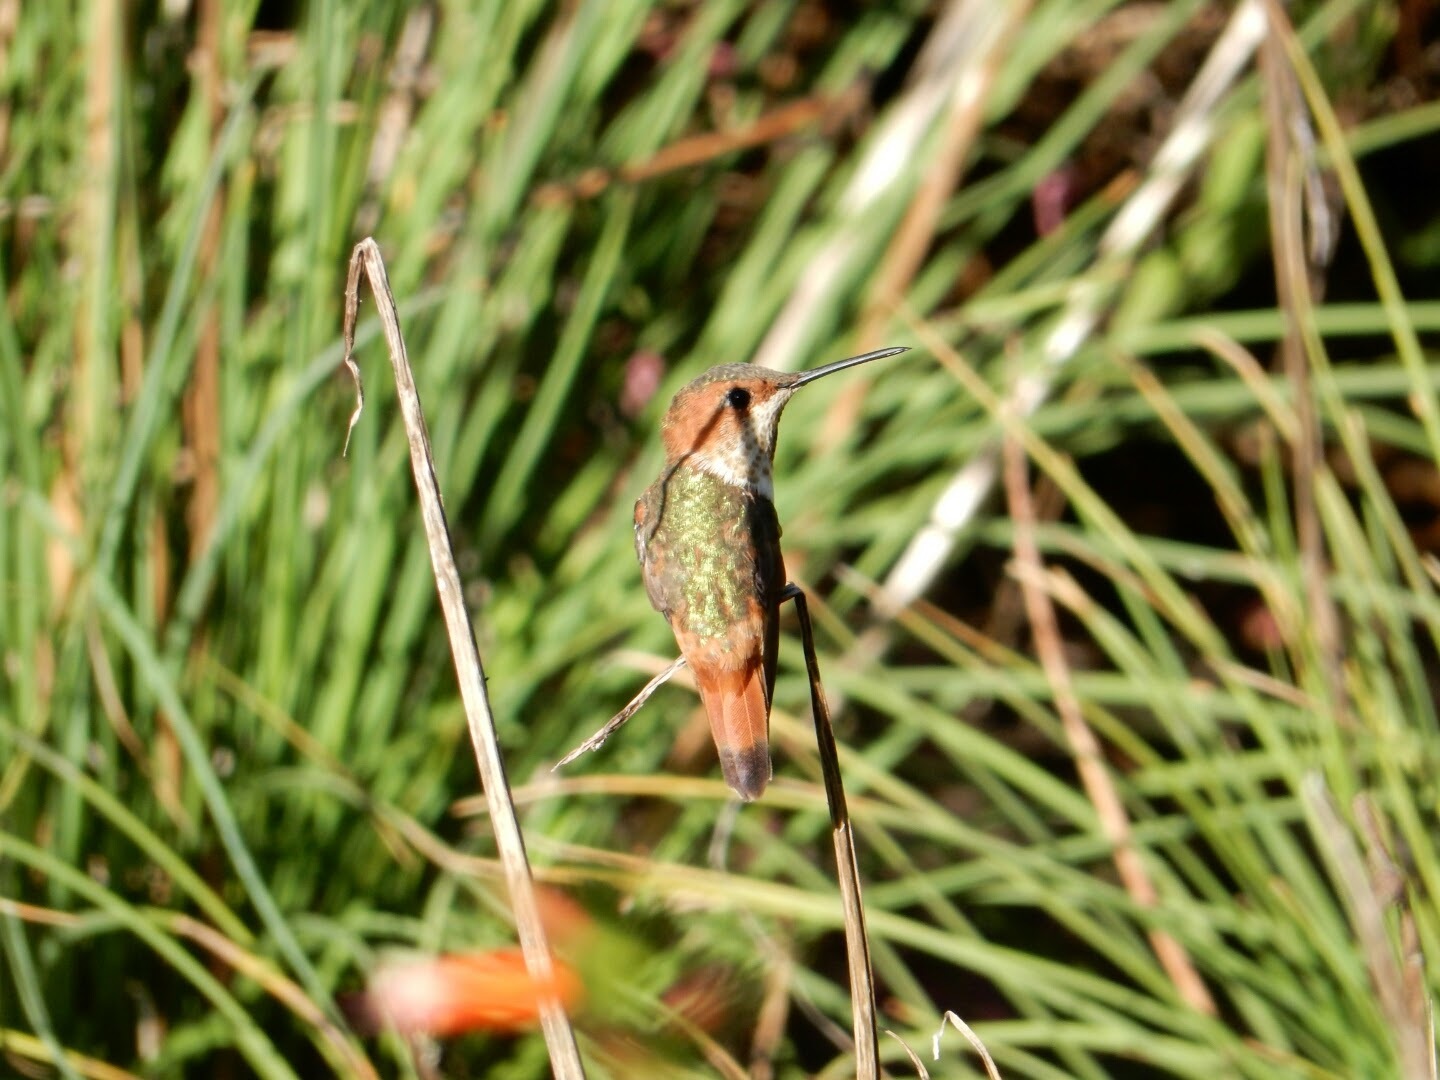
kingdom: Animalia
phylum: Chordata
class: Aves
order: Apodiformes
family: Trochilidae
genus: Selasphorus
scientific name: Selasphorus sasin
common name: Allen's hummingbird
